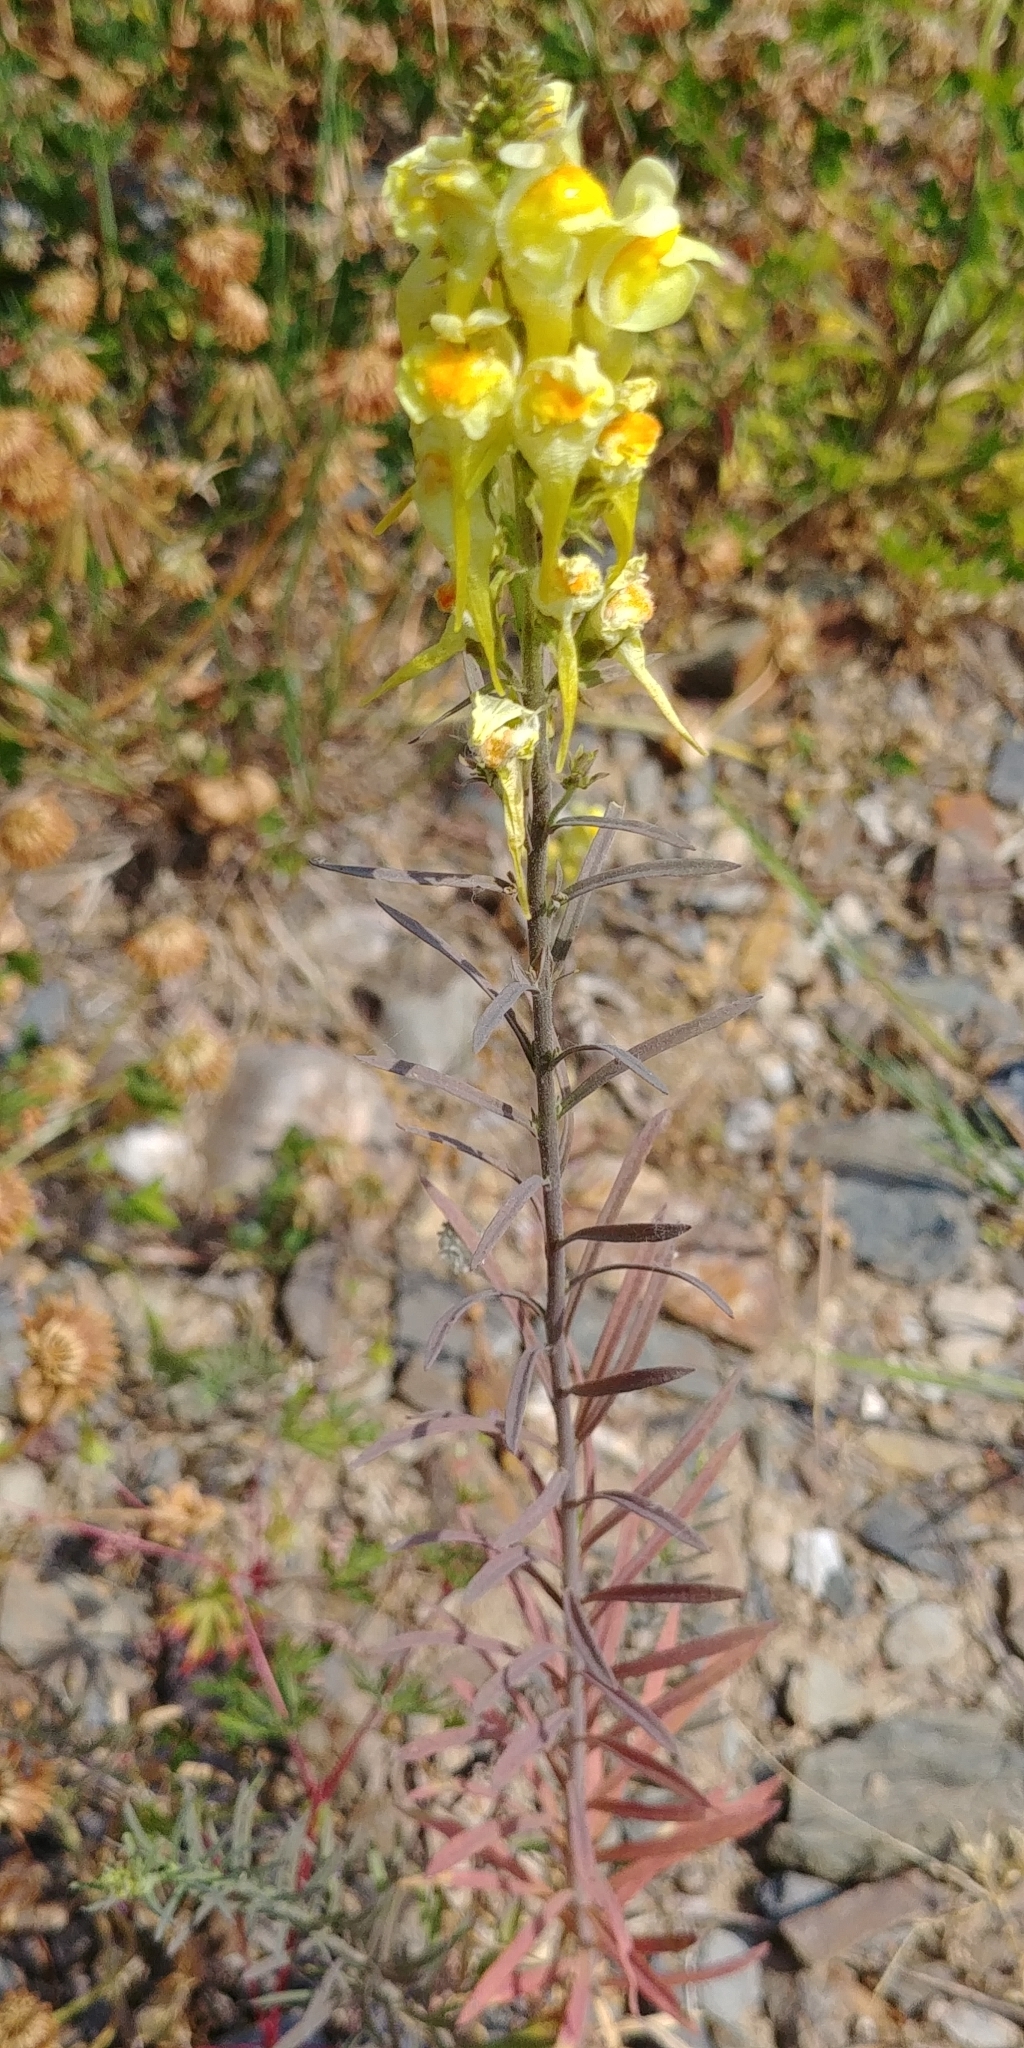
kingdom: Plantae
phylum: Tracheophyta
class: Magnoliopsida
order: Lamiales
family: Plantaginaceae
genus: Linaria
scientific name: Linaria vulgaris
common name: Butter and eggs
